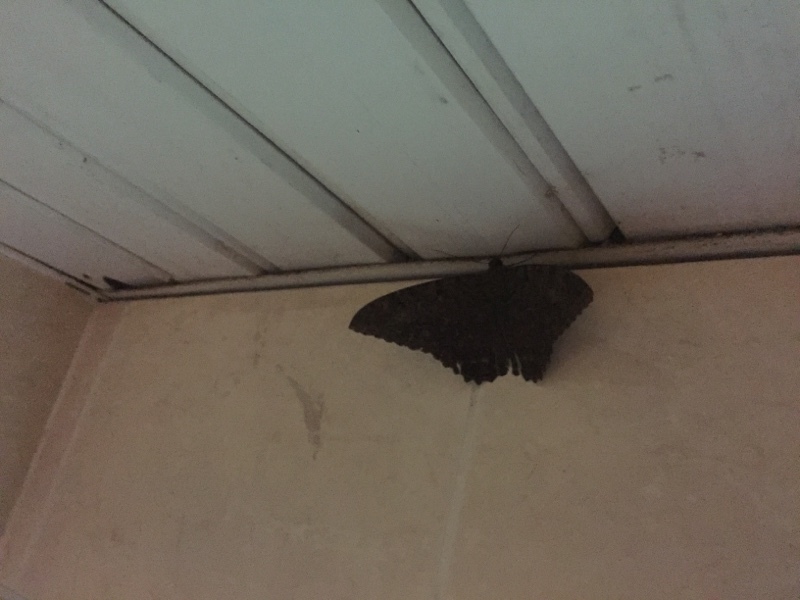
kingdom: Animalia
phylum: Arthropoda
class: Insecta
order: Lepidoptera
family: Erebidae
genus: Ascalapha
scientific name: Ascalapha odorata
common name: Black witch
